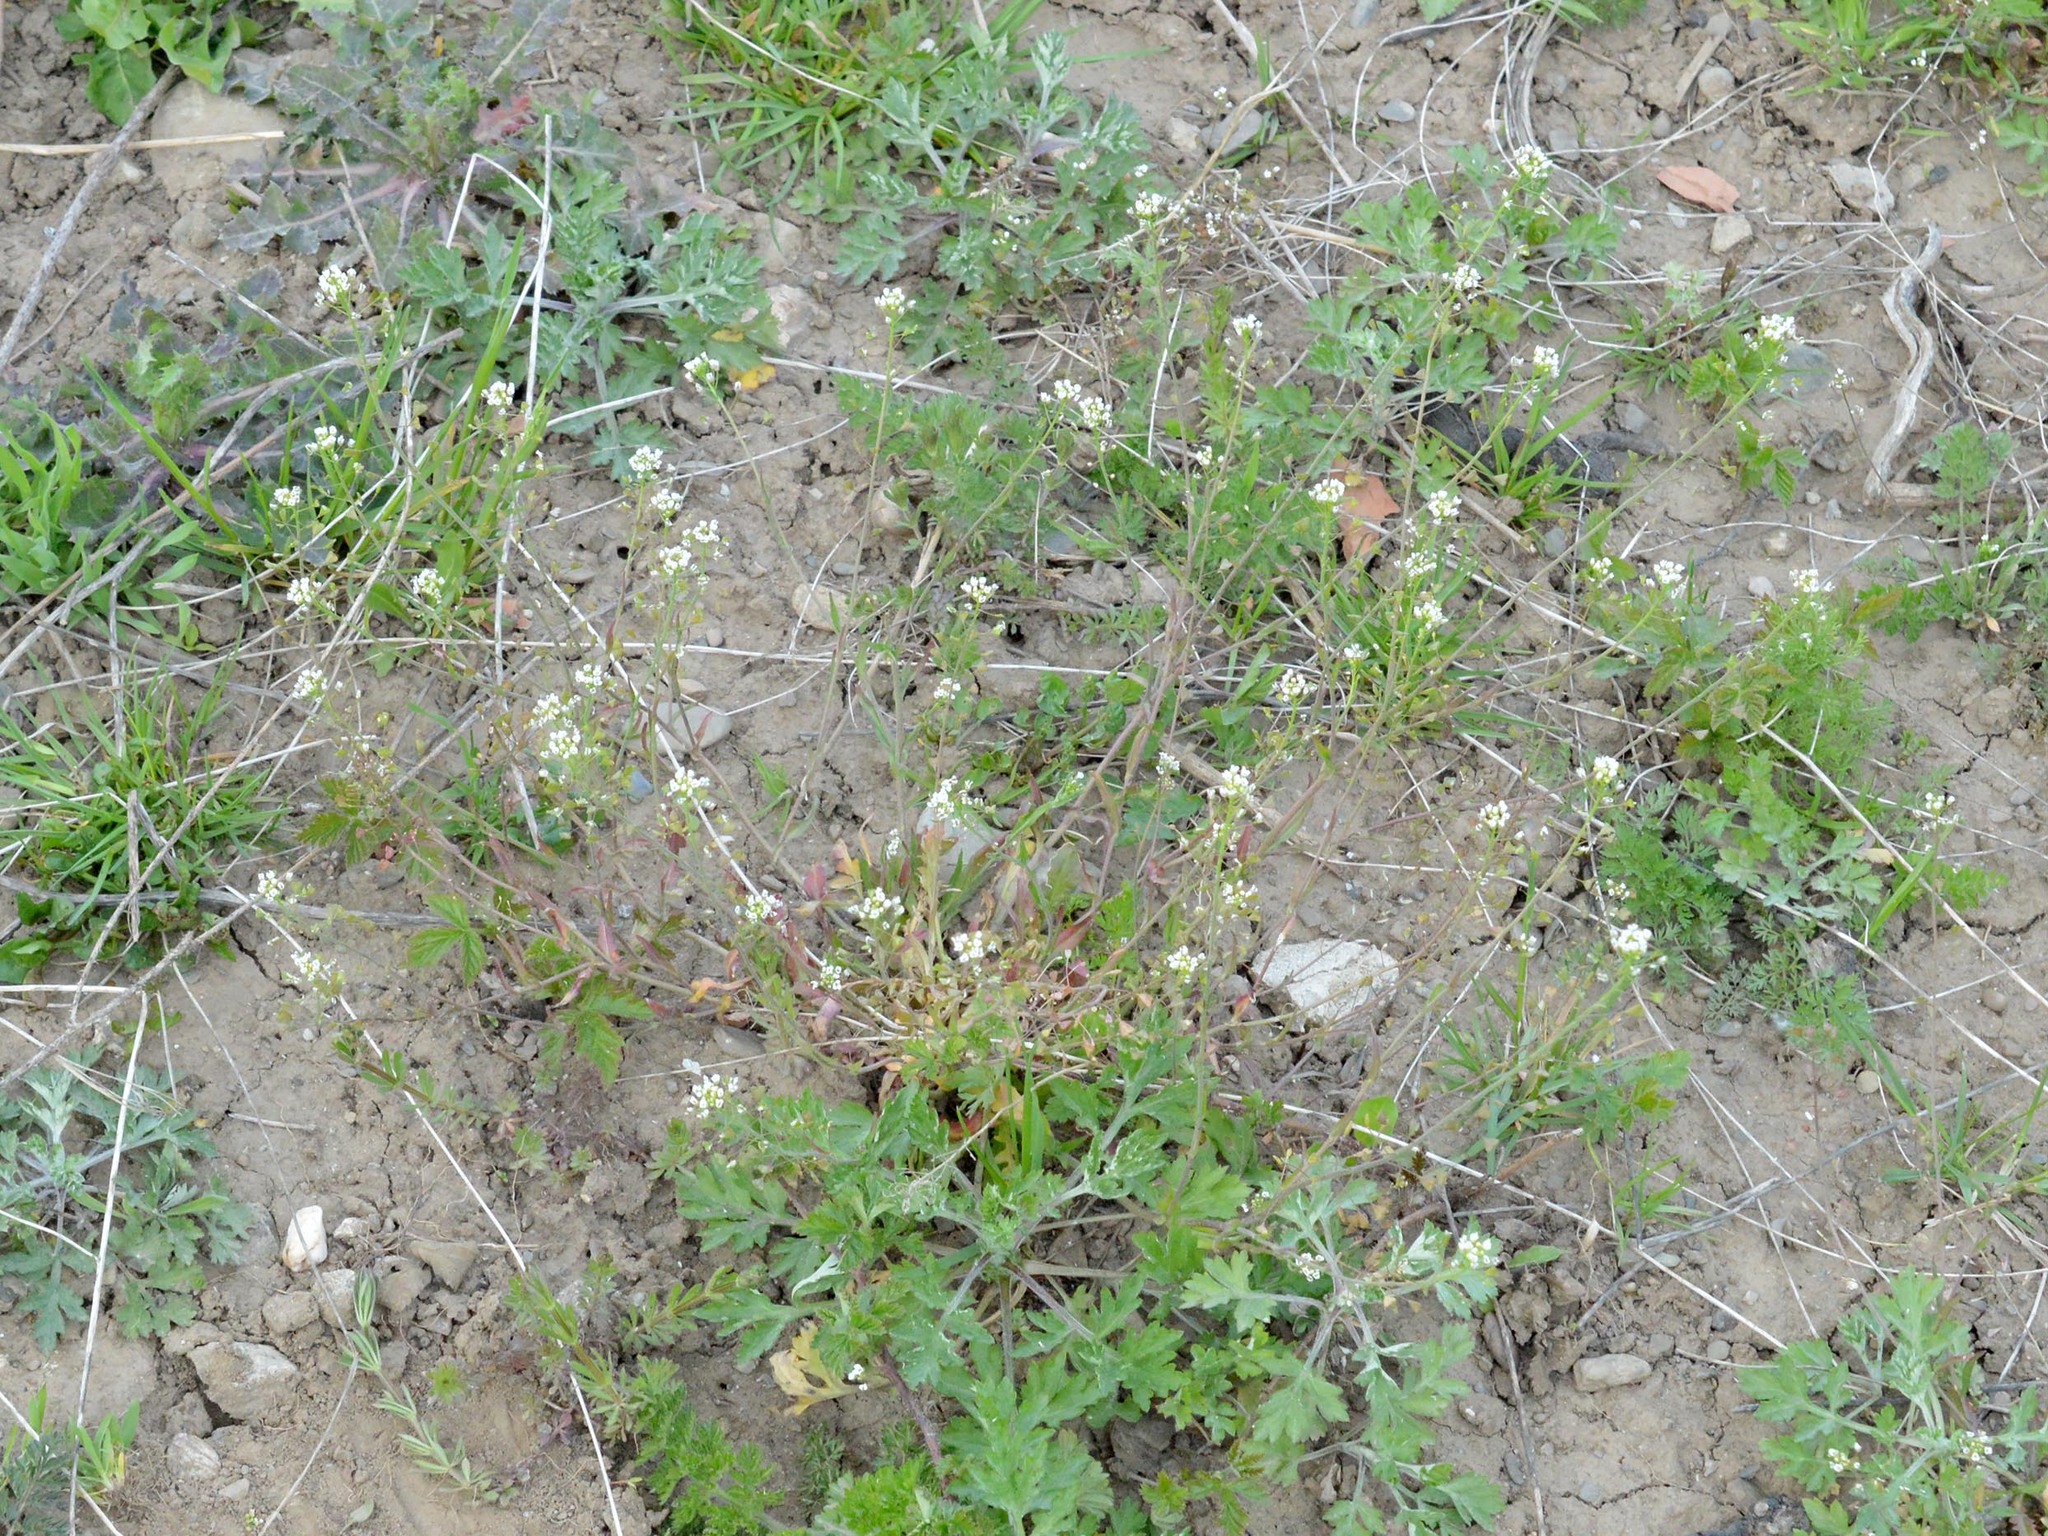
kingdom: Plantae
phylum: Tracheophyta
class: Magnoliopsida
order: Brassicales
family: Brassicaceae
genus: Capsella
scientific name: Capsella bursa-pastoris
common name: Shepherd's purse
